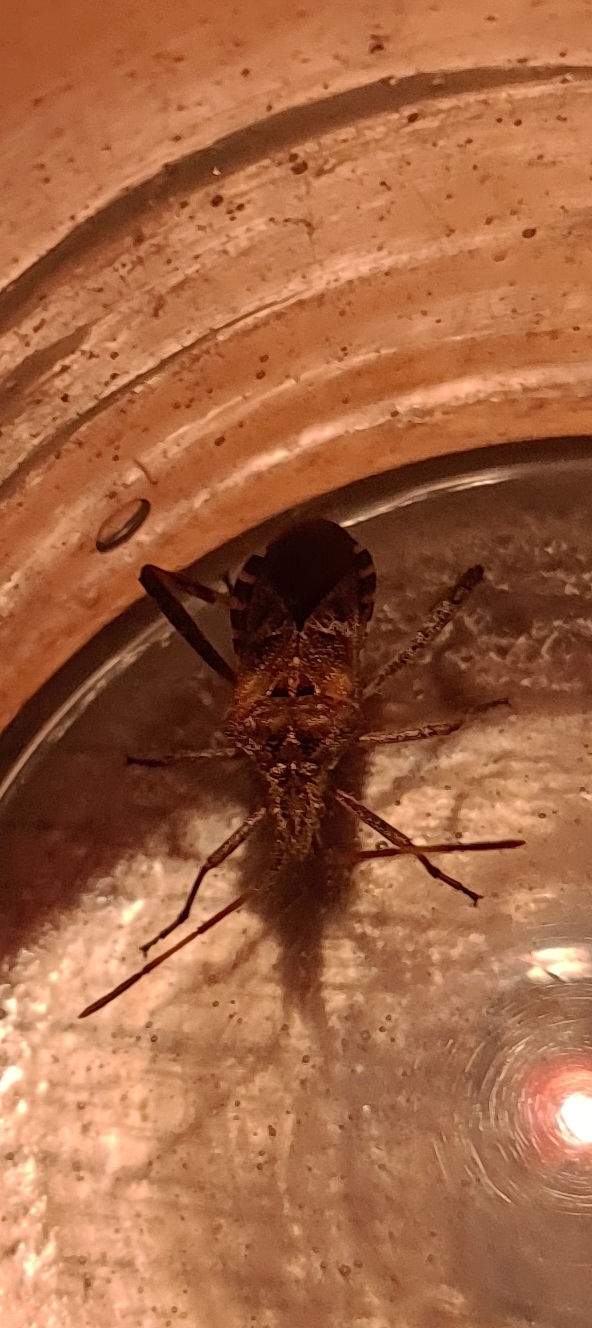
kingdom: Animalia
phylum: Arthropoda
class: Insecta
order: Hemiptera
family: Coreidae
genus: Leptoglossus
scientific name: Leptoglossus occidentalis
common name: Western conifer-seed bug
